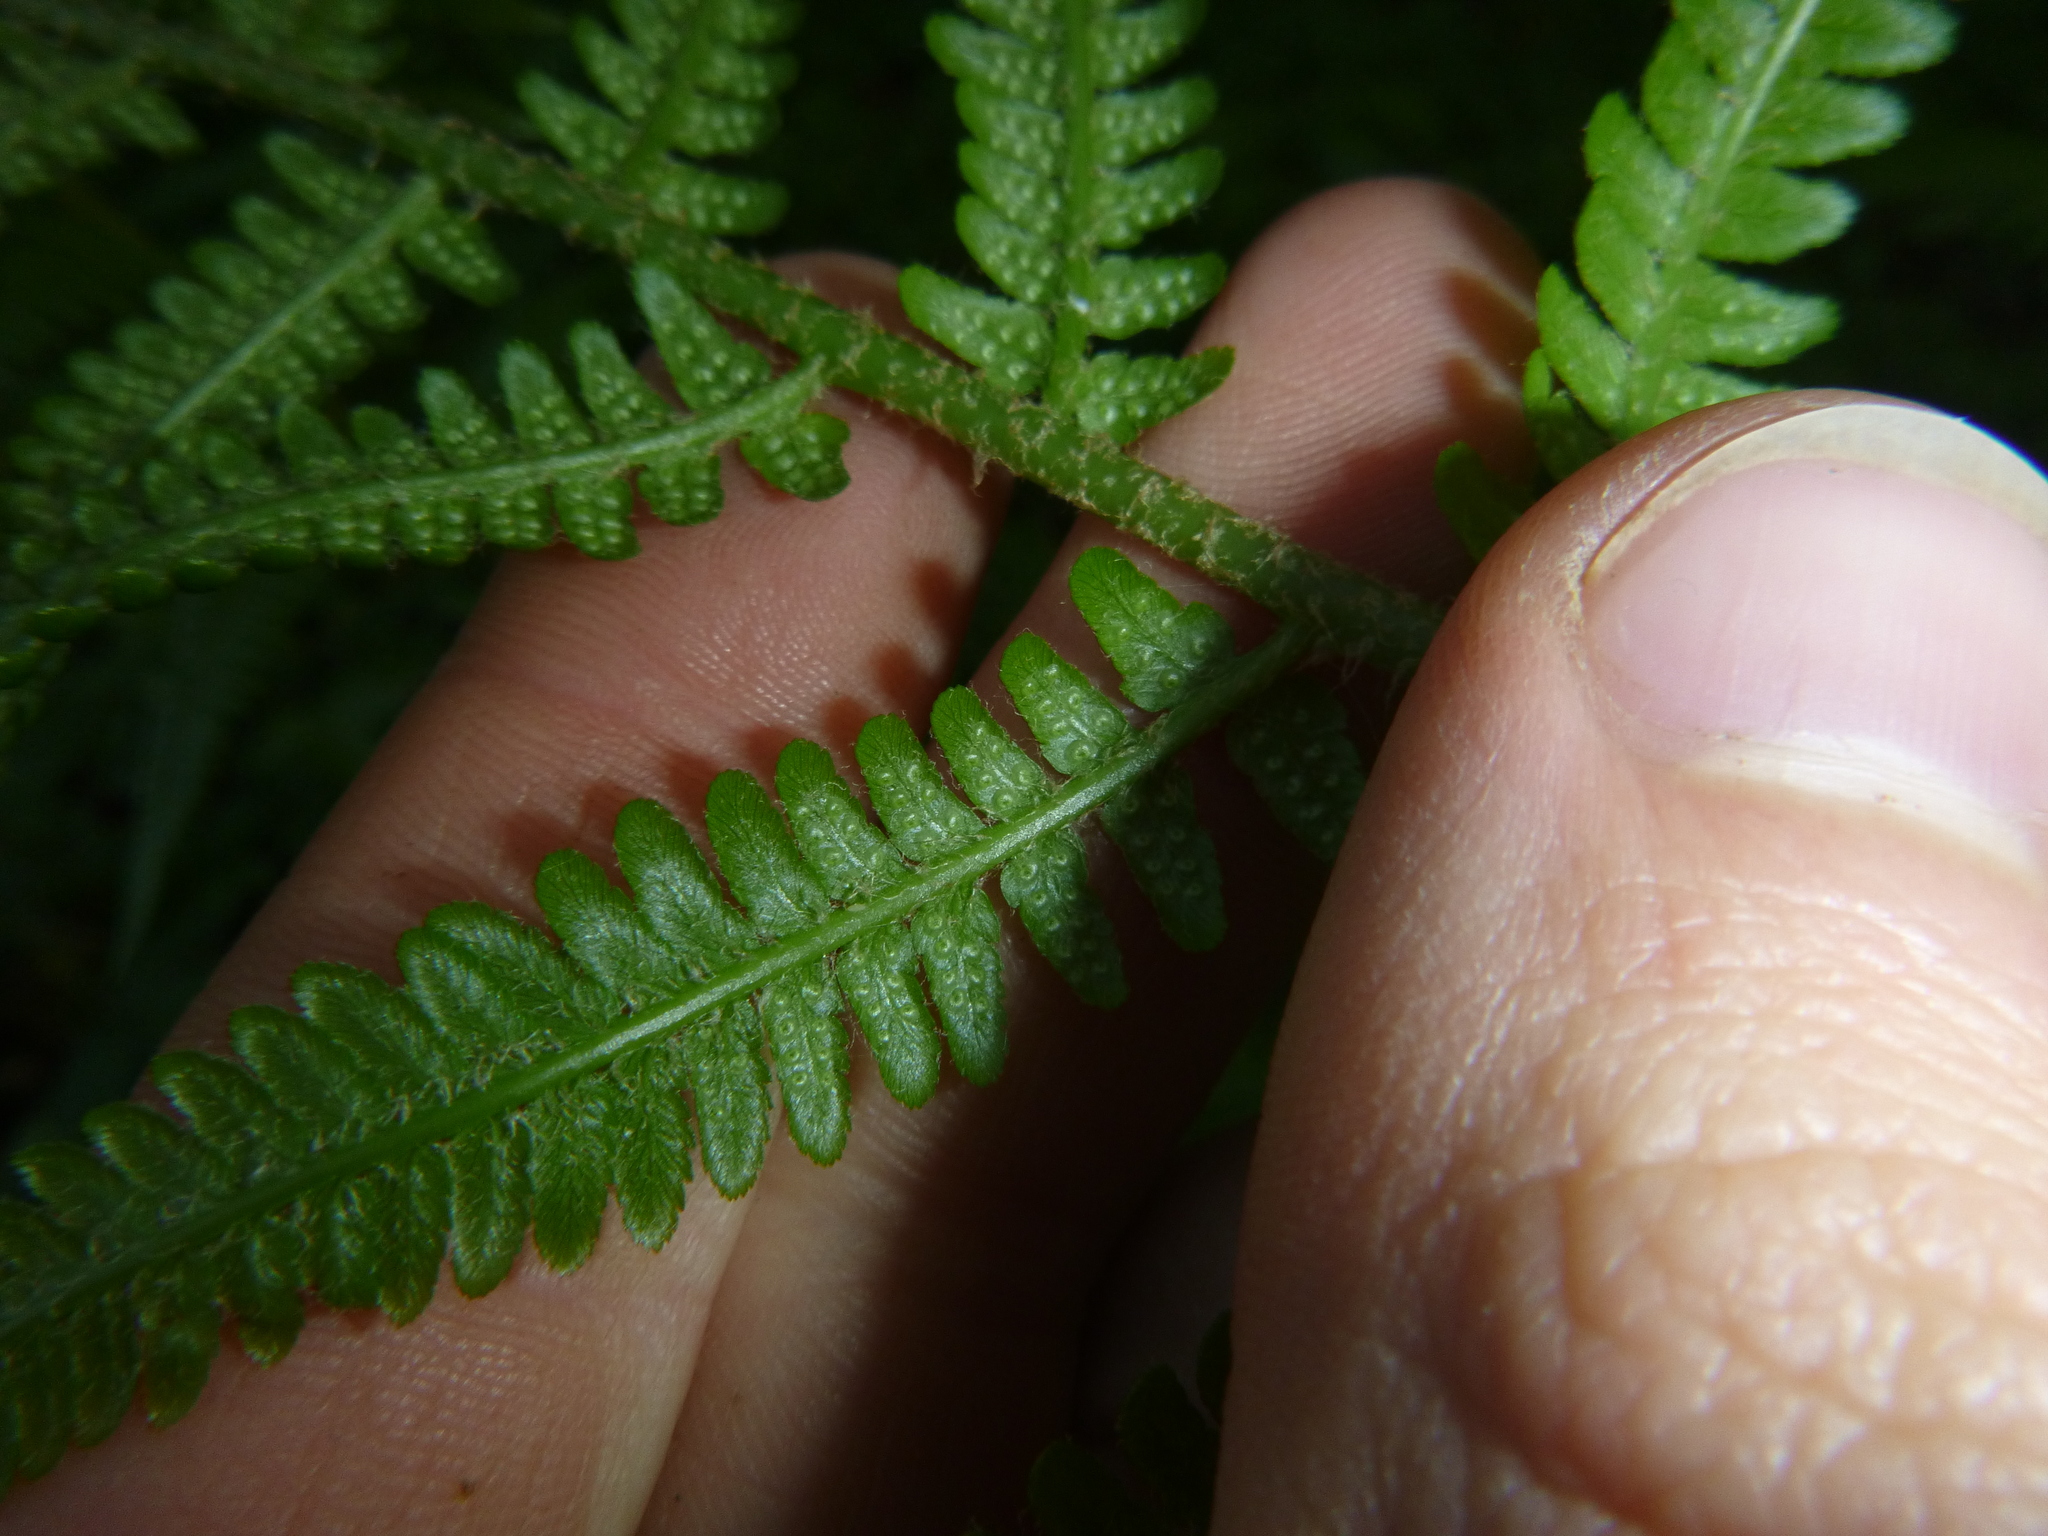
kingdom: Plantae
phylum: Tracheophyta
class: Polypodiopsida
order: Polypodiales
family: Dryopteridaceae
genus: Dryopteris
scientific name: Dryopteris filix-mas
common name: Male fern
